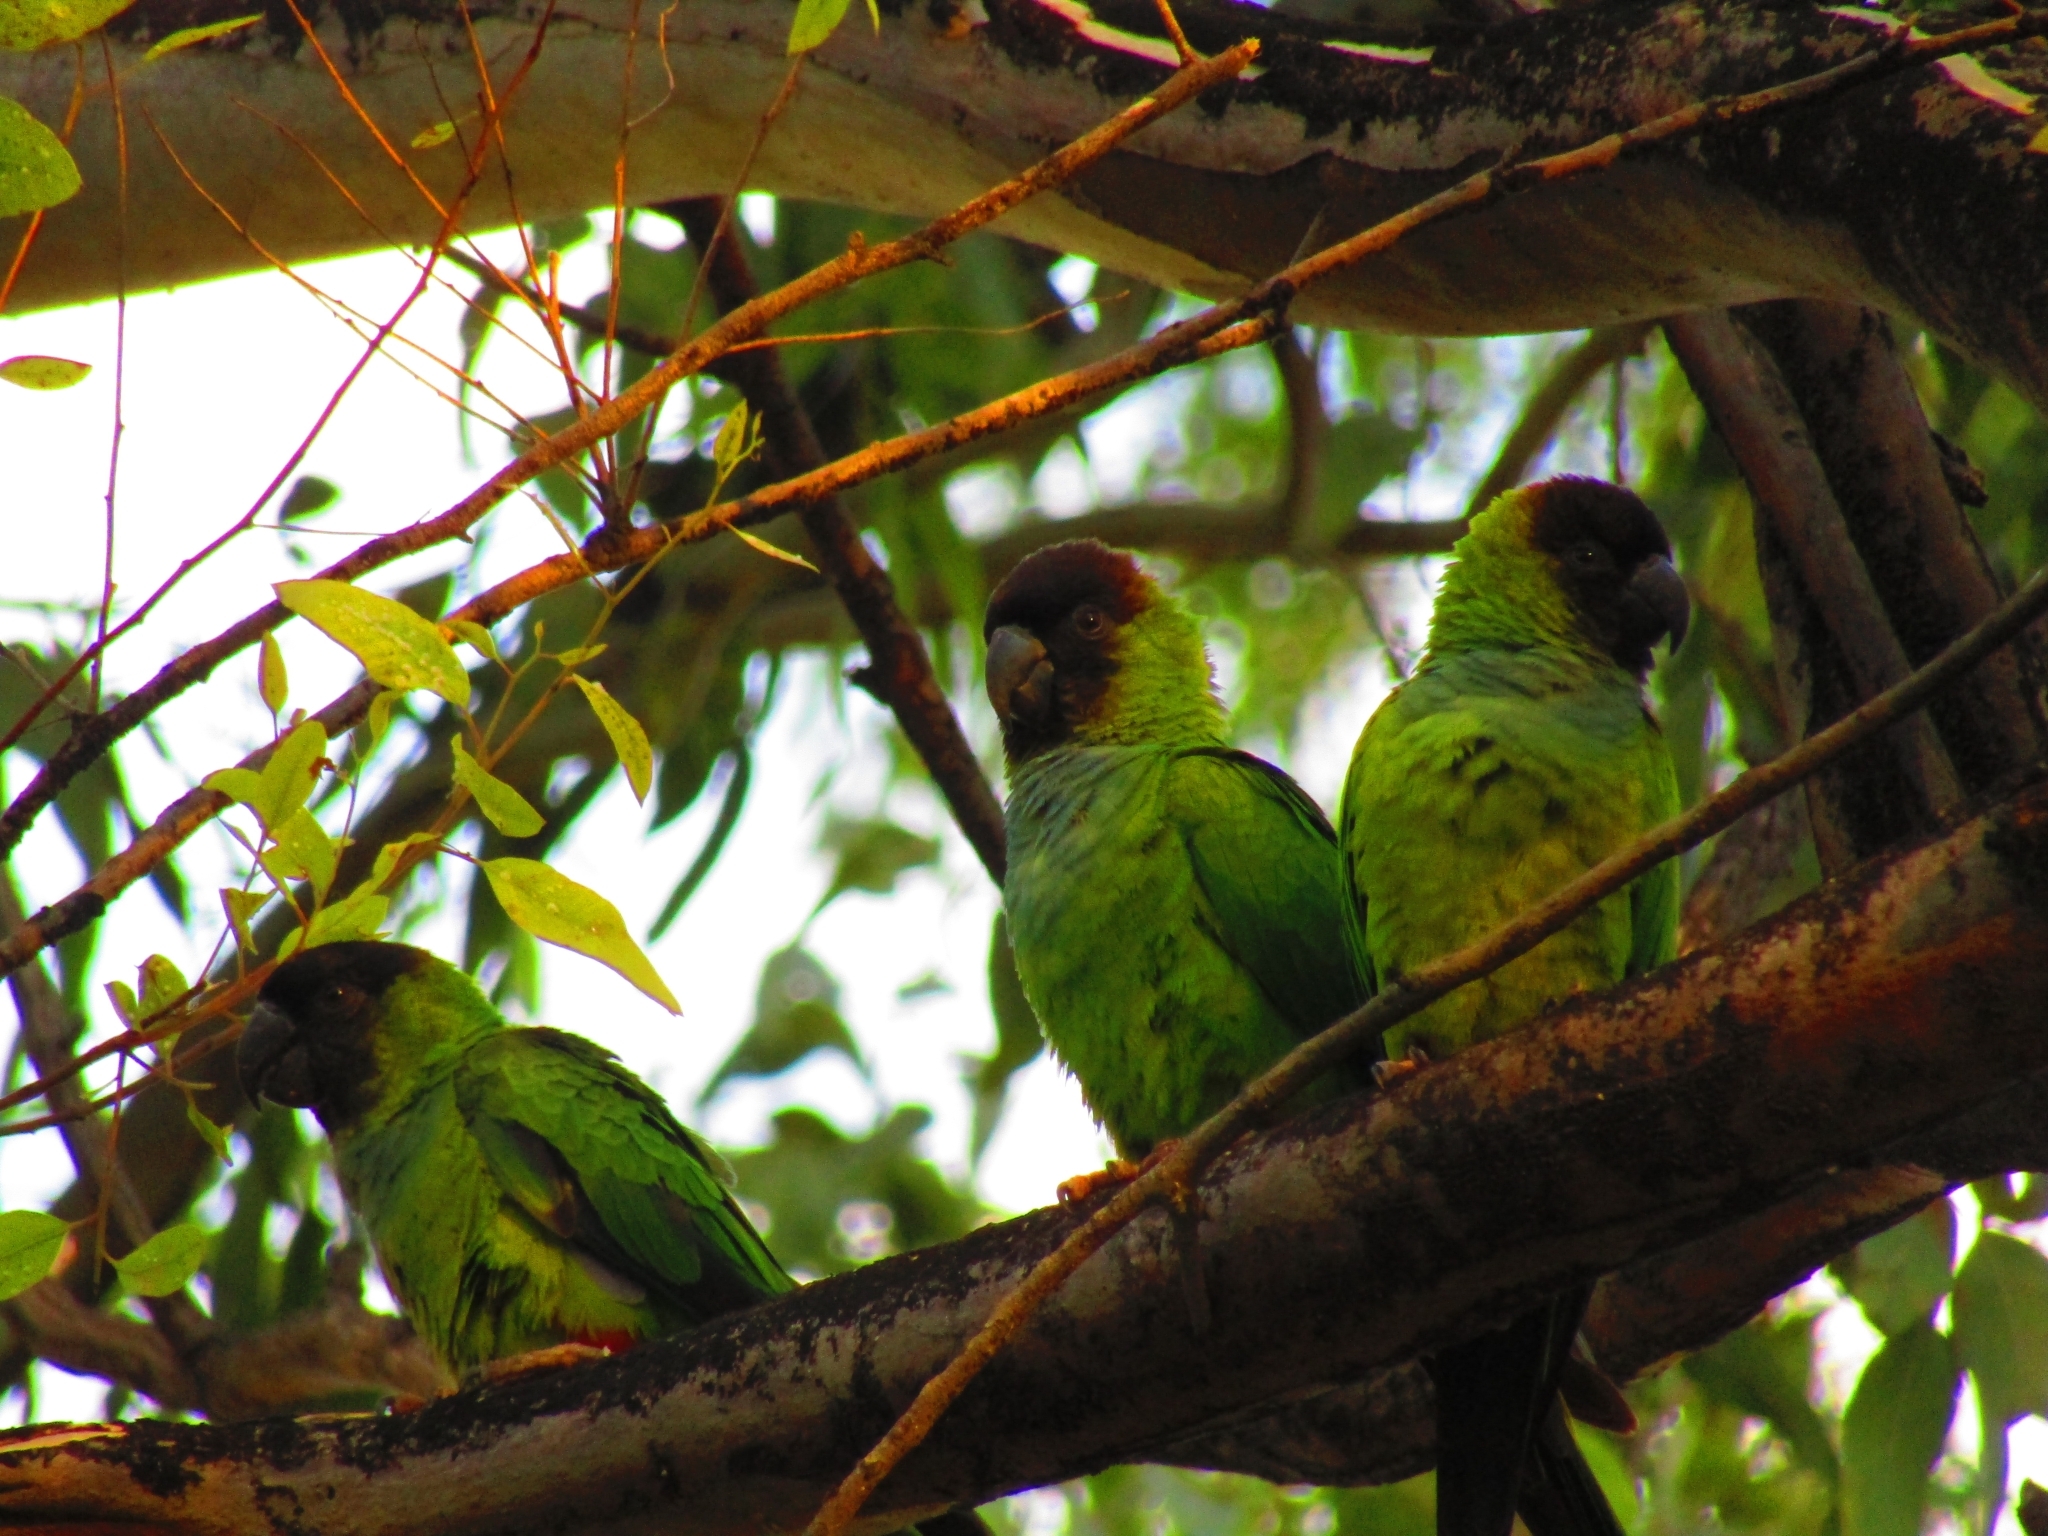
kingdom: Animalia
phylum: Chordata
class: Aves
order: Psittaciformes
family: Psittacidae
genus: Nandayus
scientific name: Nandayus nenday
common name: Nanday parakeet
